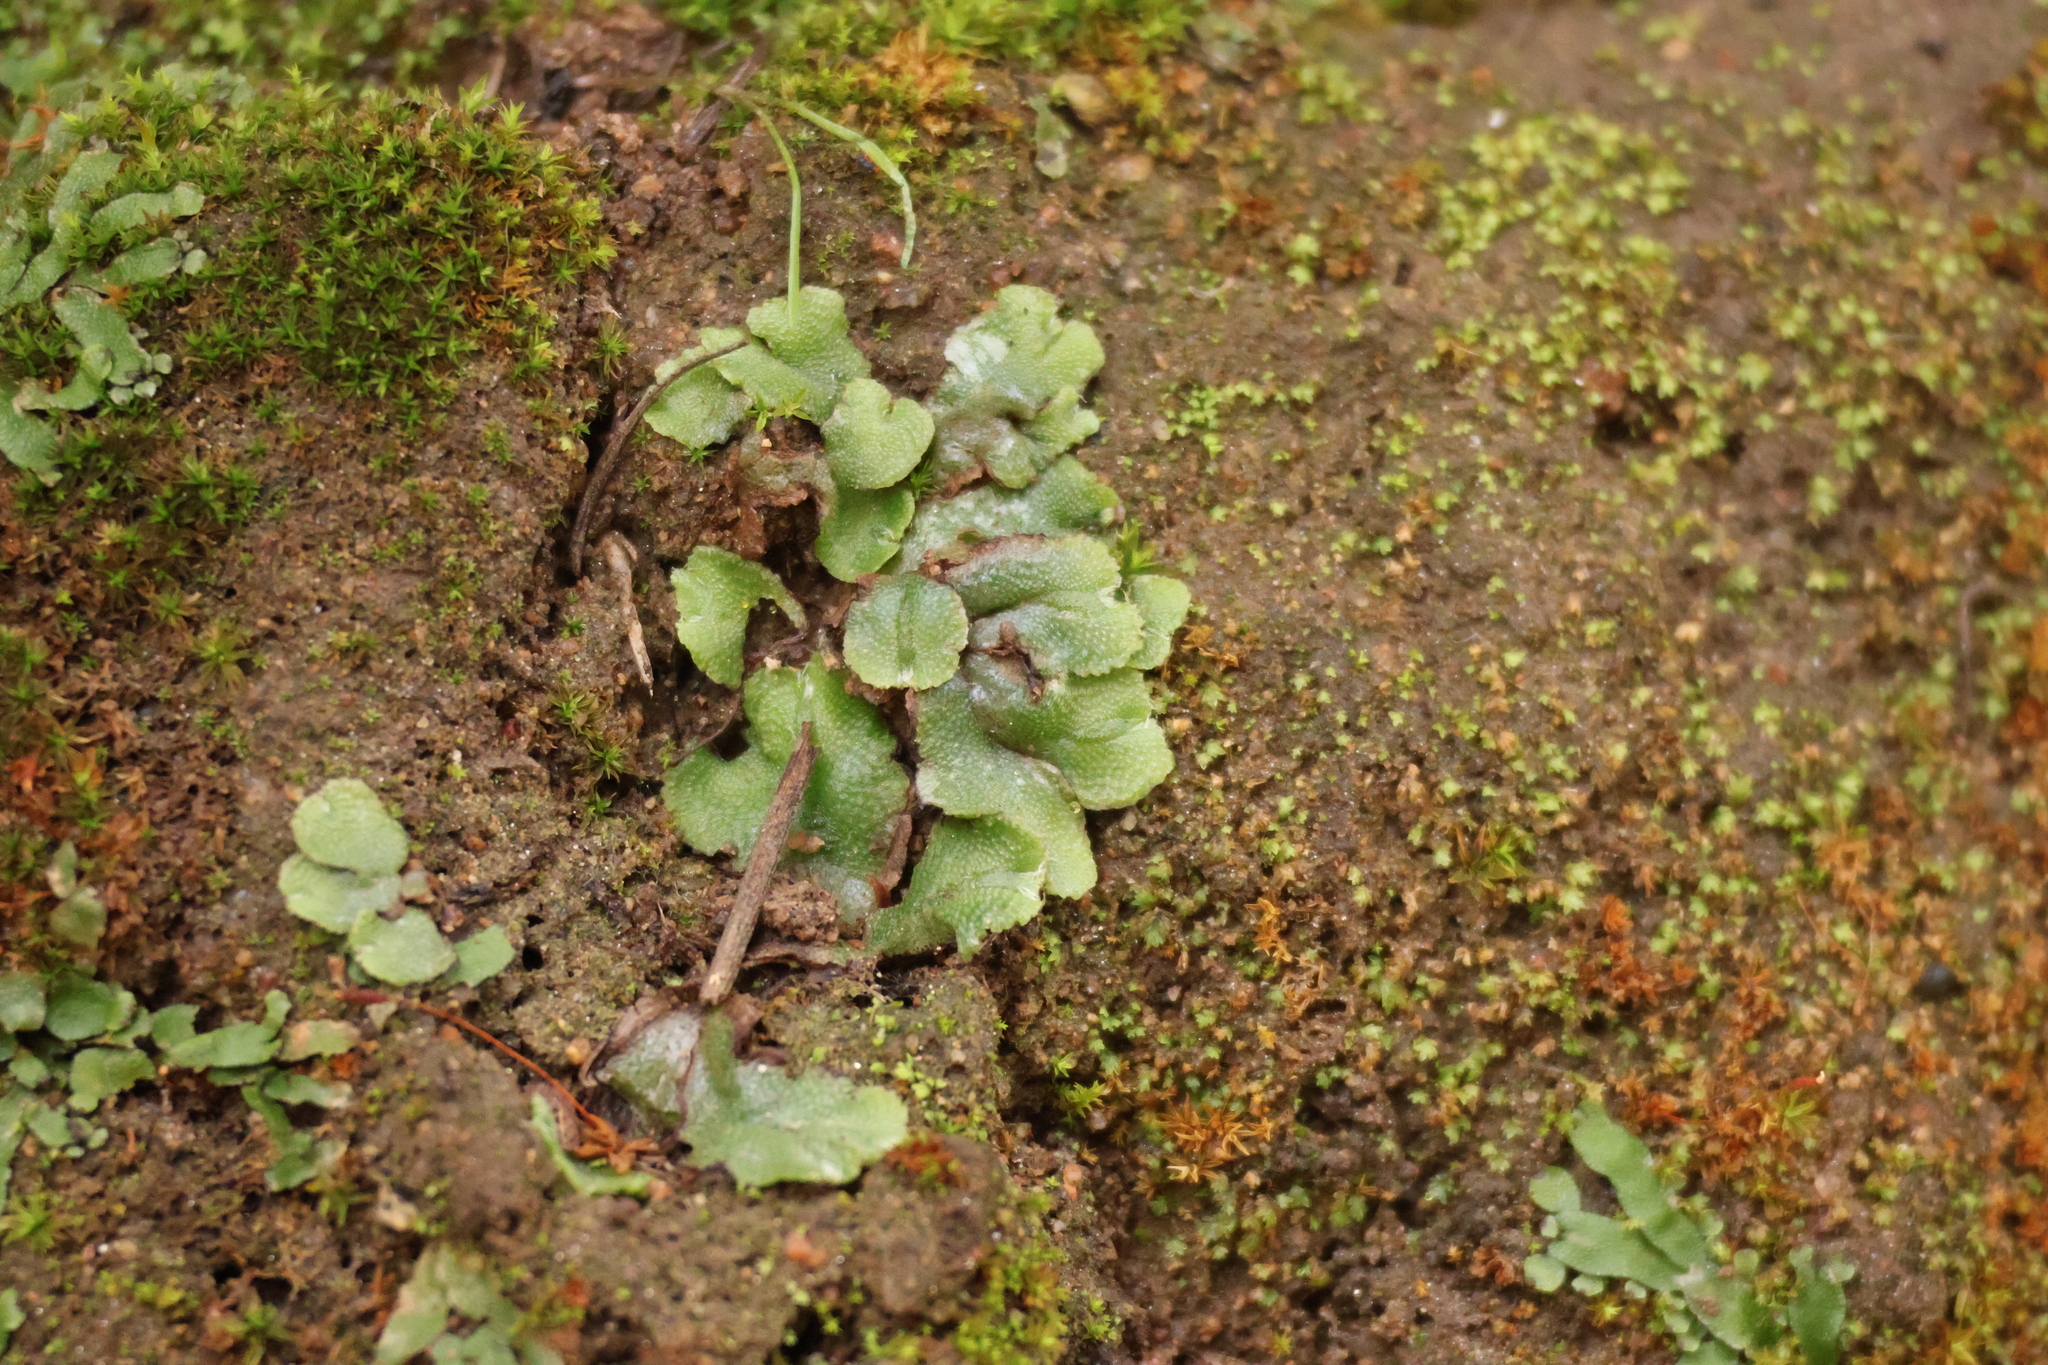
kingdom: Plantae
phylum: Marchantiophyta
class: Marchantiopsida
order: Marchantiales
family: Aytoniaceae
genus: Asterella
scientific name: Asterella californica
